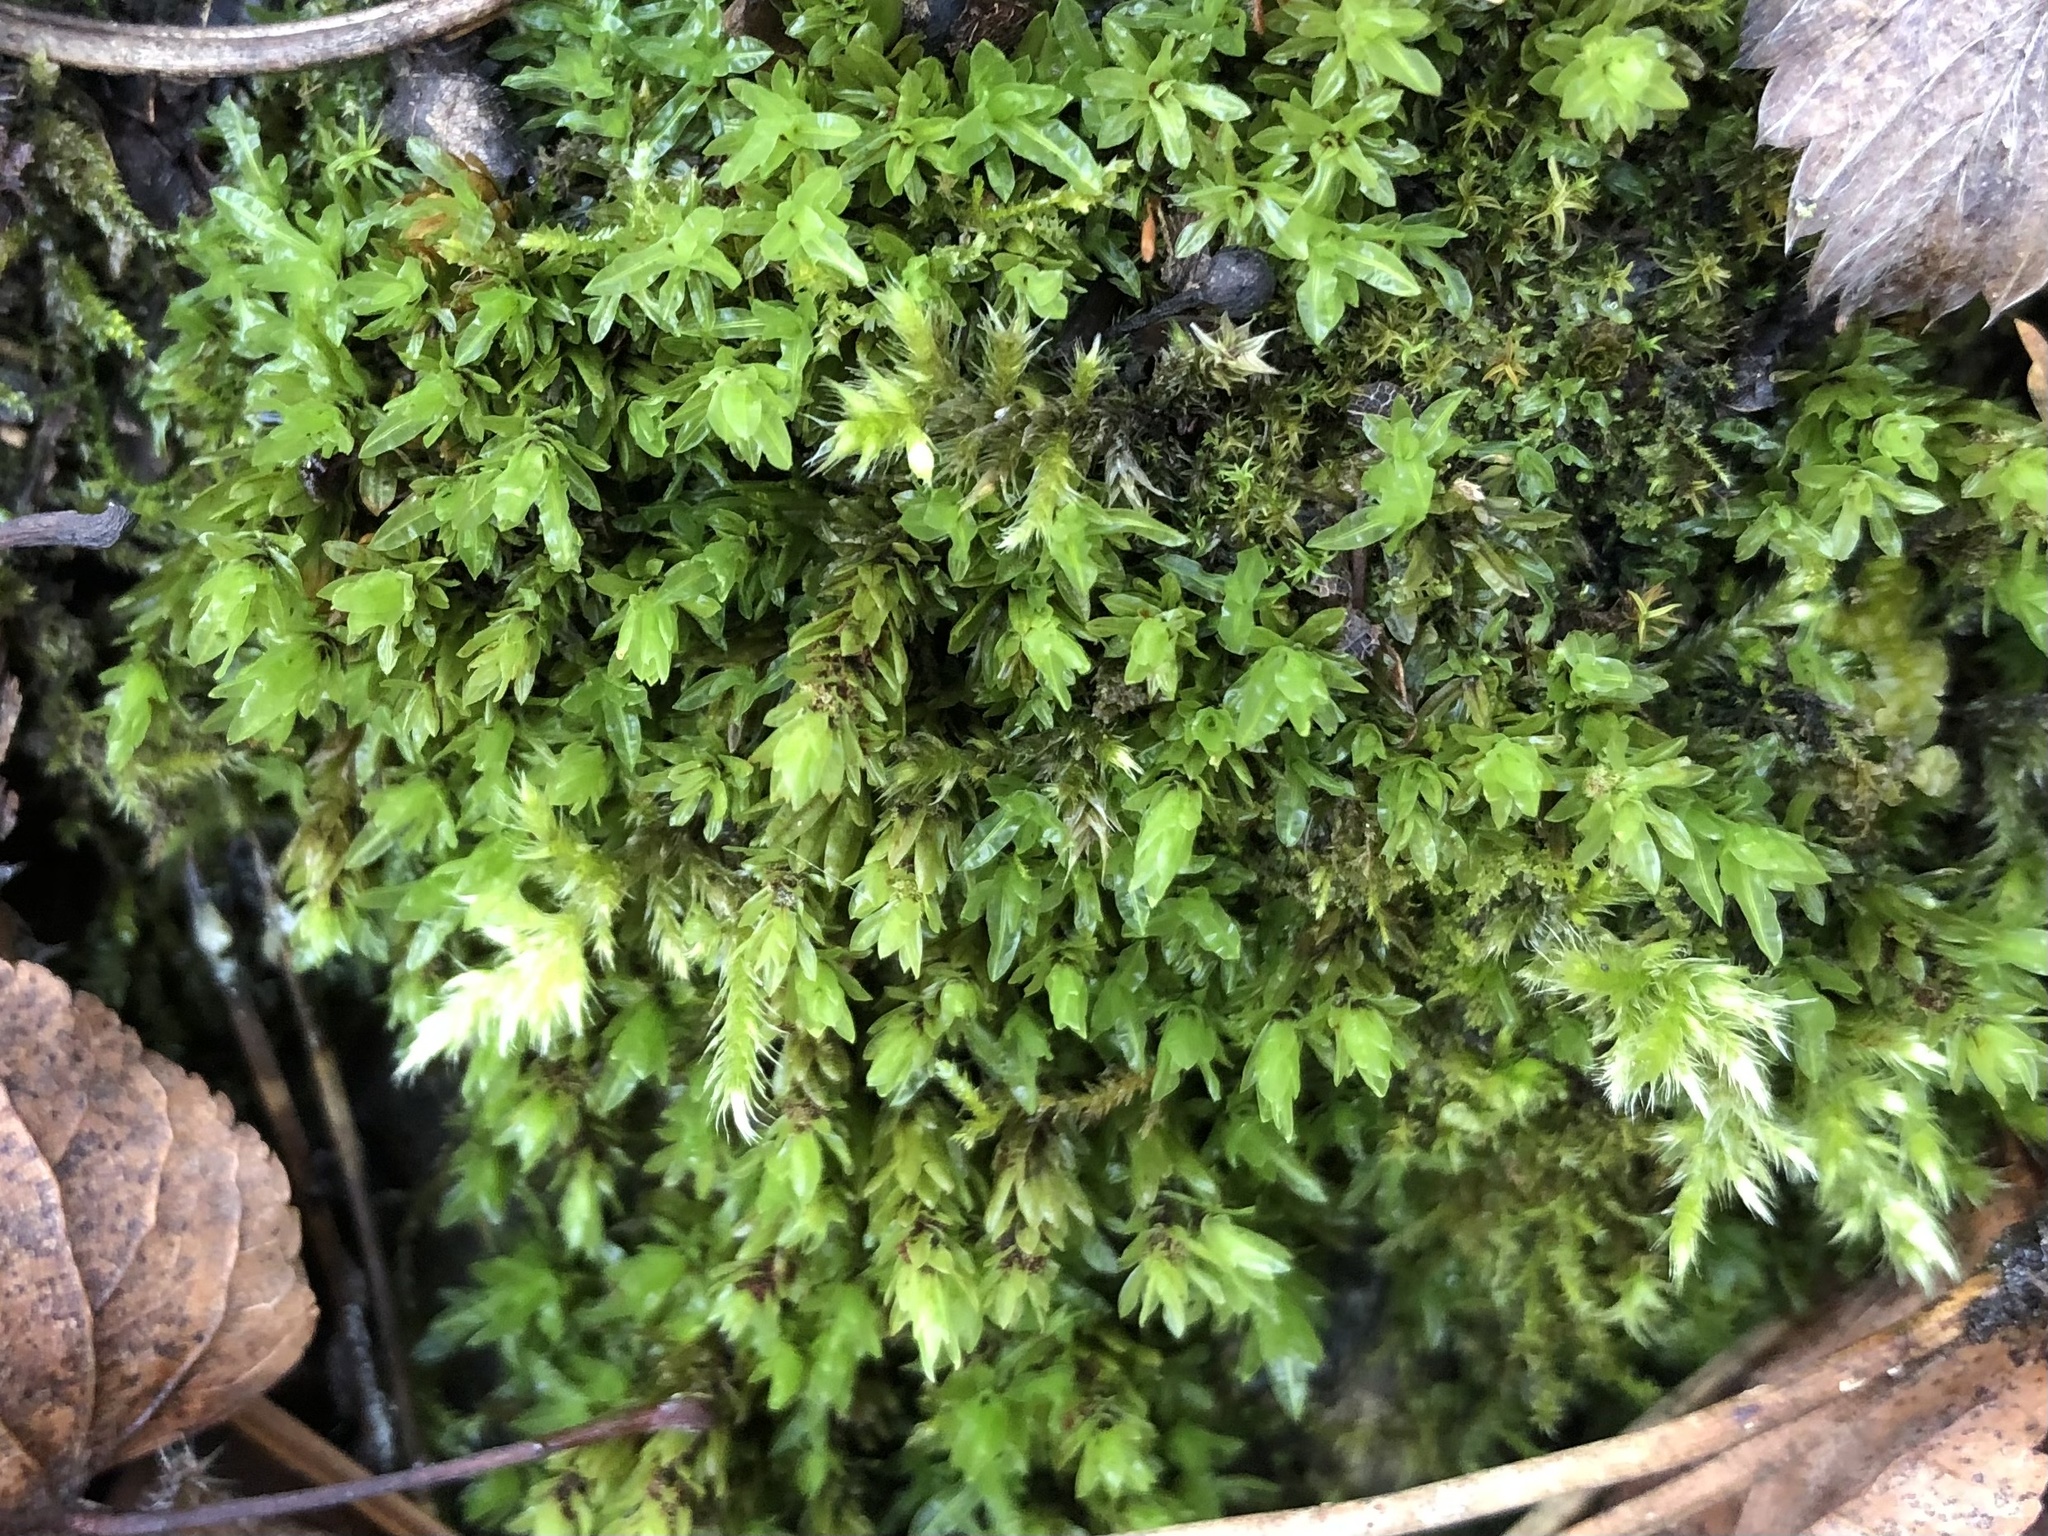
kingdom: Plantae
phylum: Bryophyta
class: Bryopsida
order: Encalyptales
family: Encalyptaceae
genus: Encalypta
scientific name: Encalypta streptocarpa
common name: Spiral extinguisher-moss
